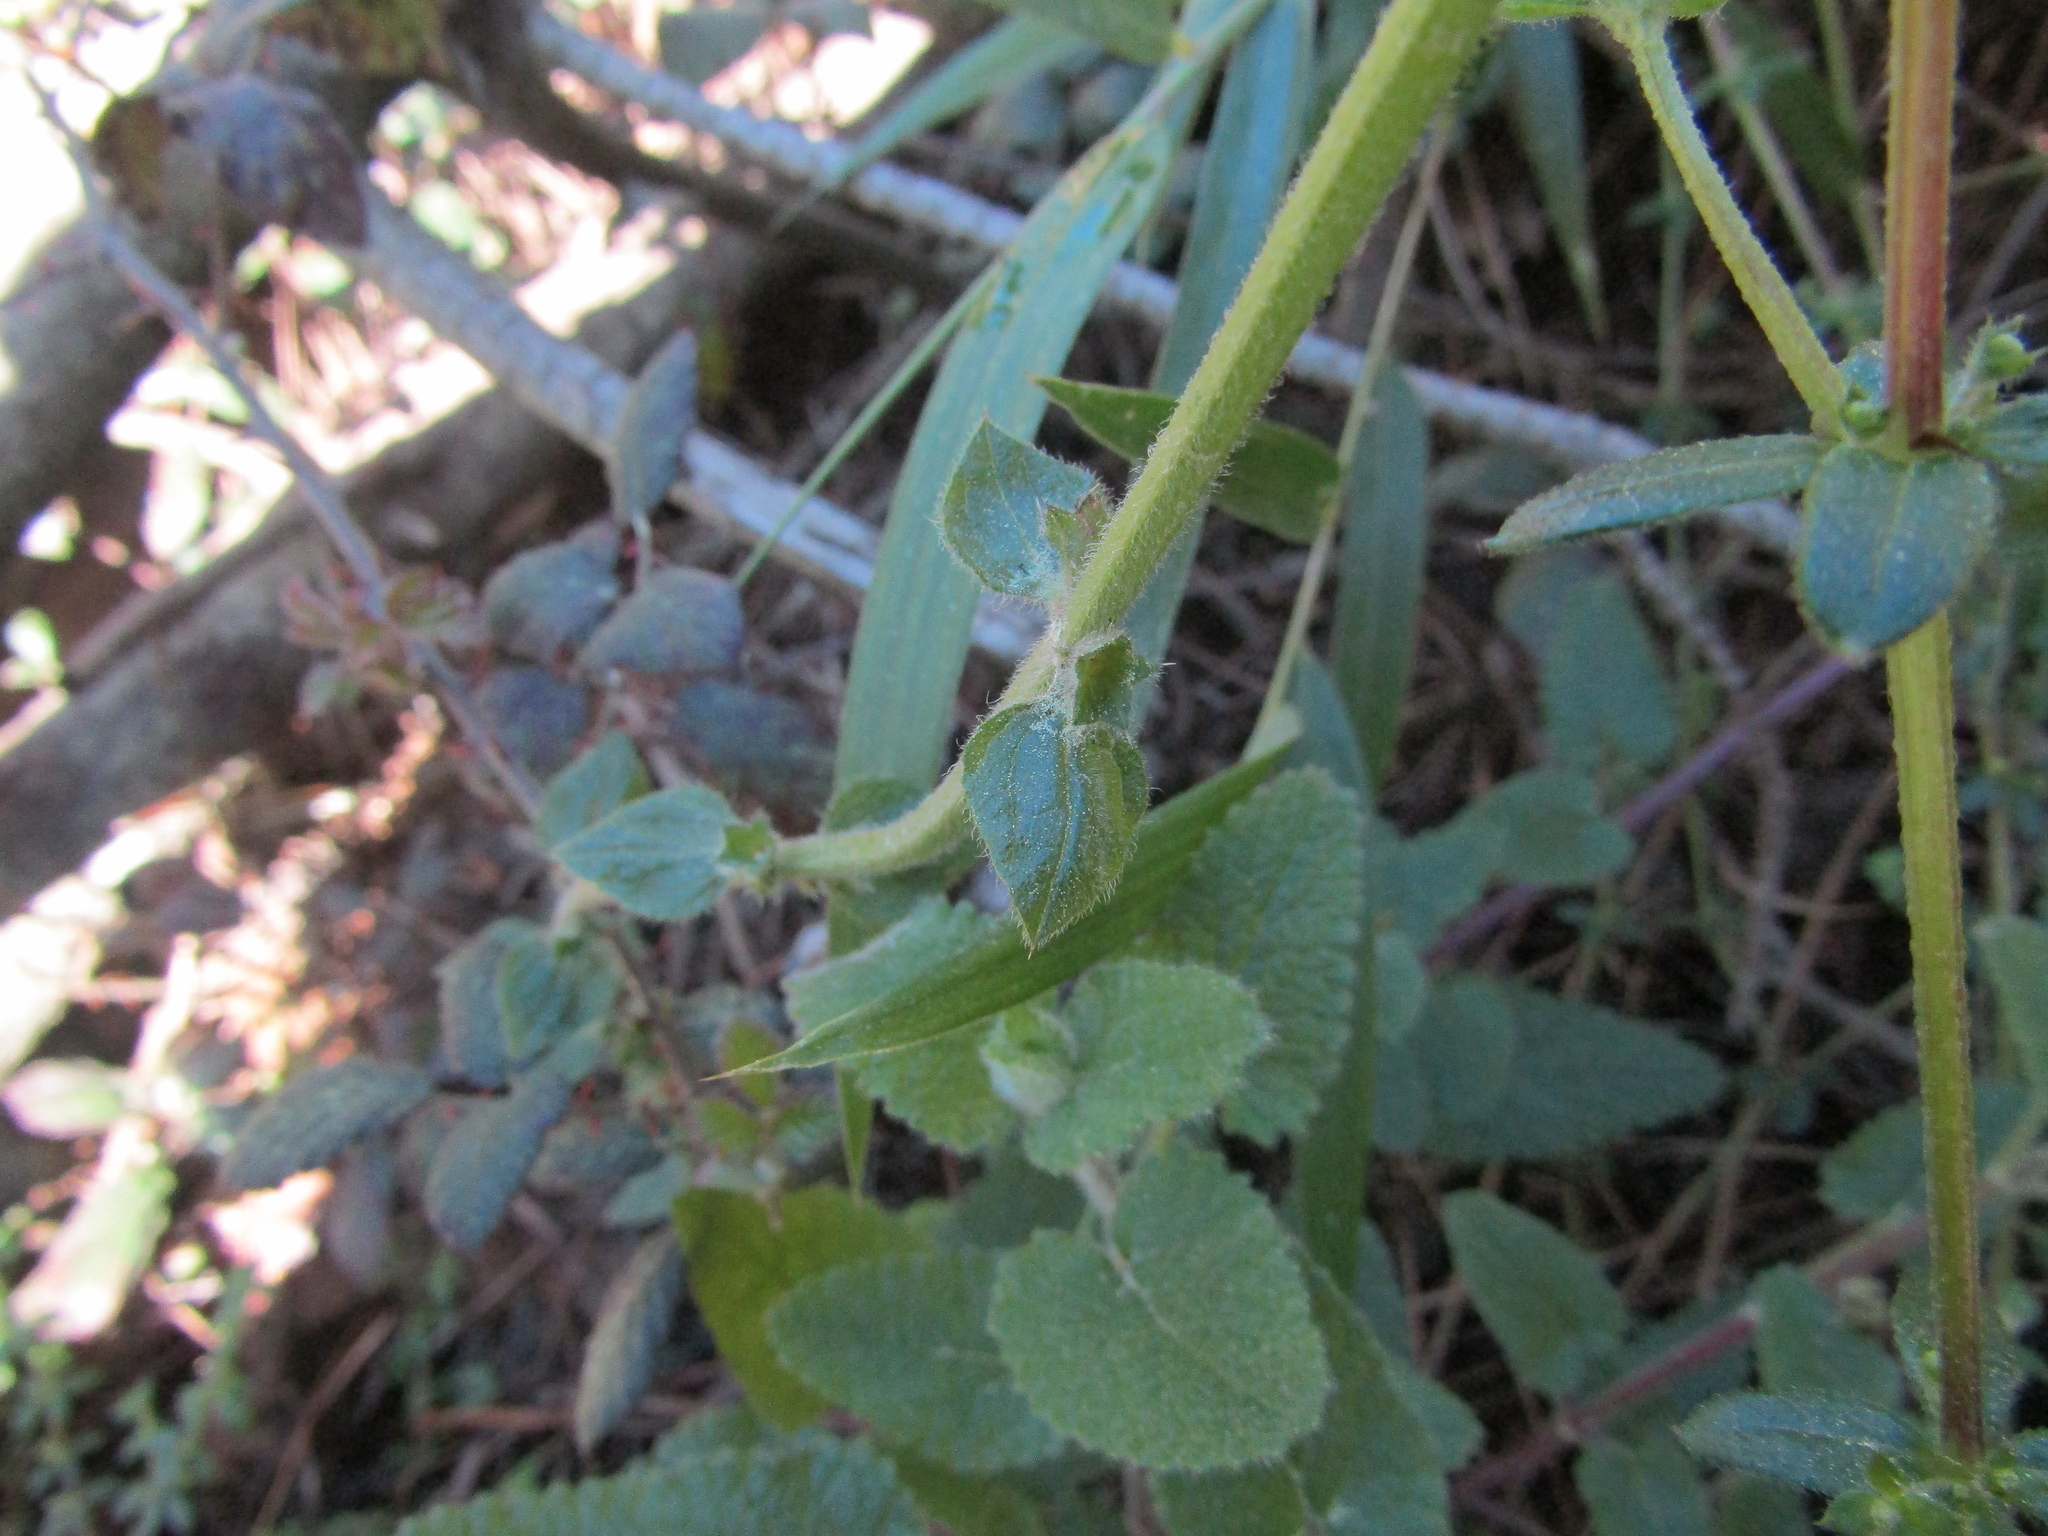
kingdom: Plantae
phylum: Tracheophyta
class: Magnoliopsida
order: Lamiales
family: Lamiaceae
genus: Stachys
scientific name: Stachys grandidentata
